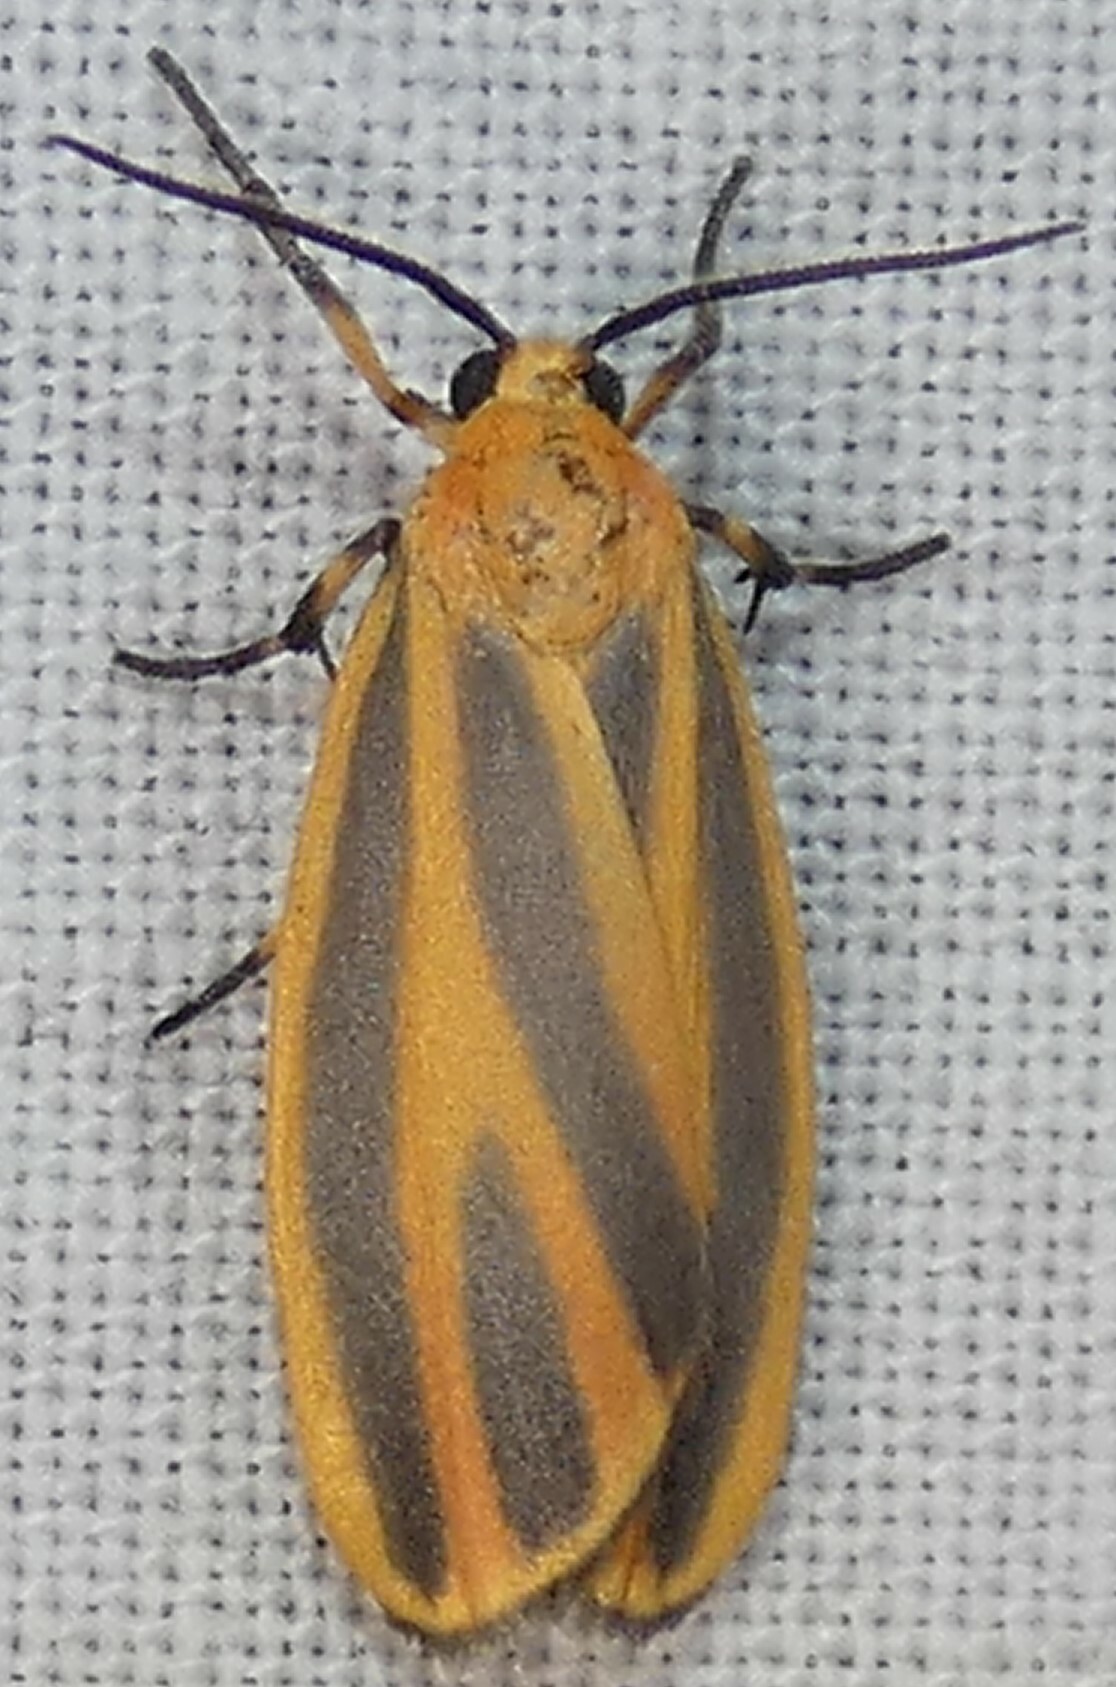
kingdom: Animalia
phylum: Arthropoda
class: Insecta
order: Lepidoptera
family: Erebidae
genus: Hypoprepia
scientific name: Hypoprepia fucosa
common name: Painted lichen moth
